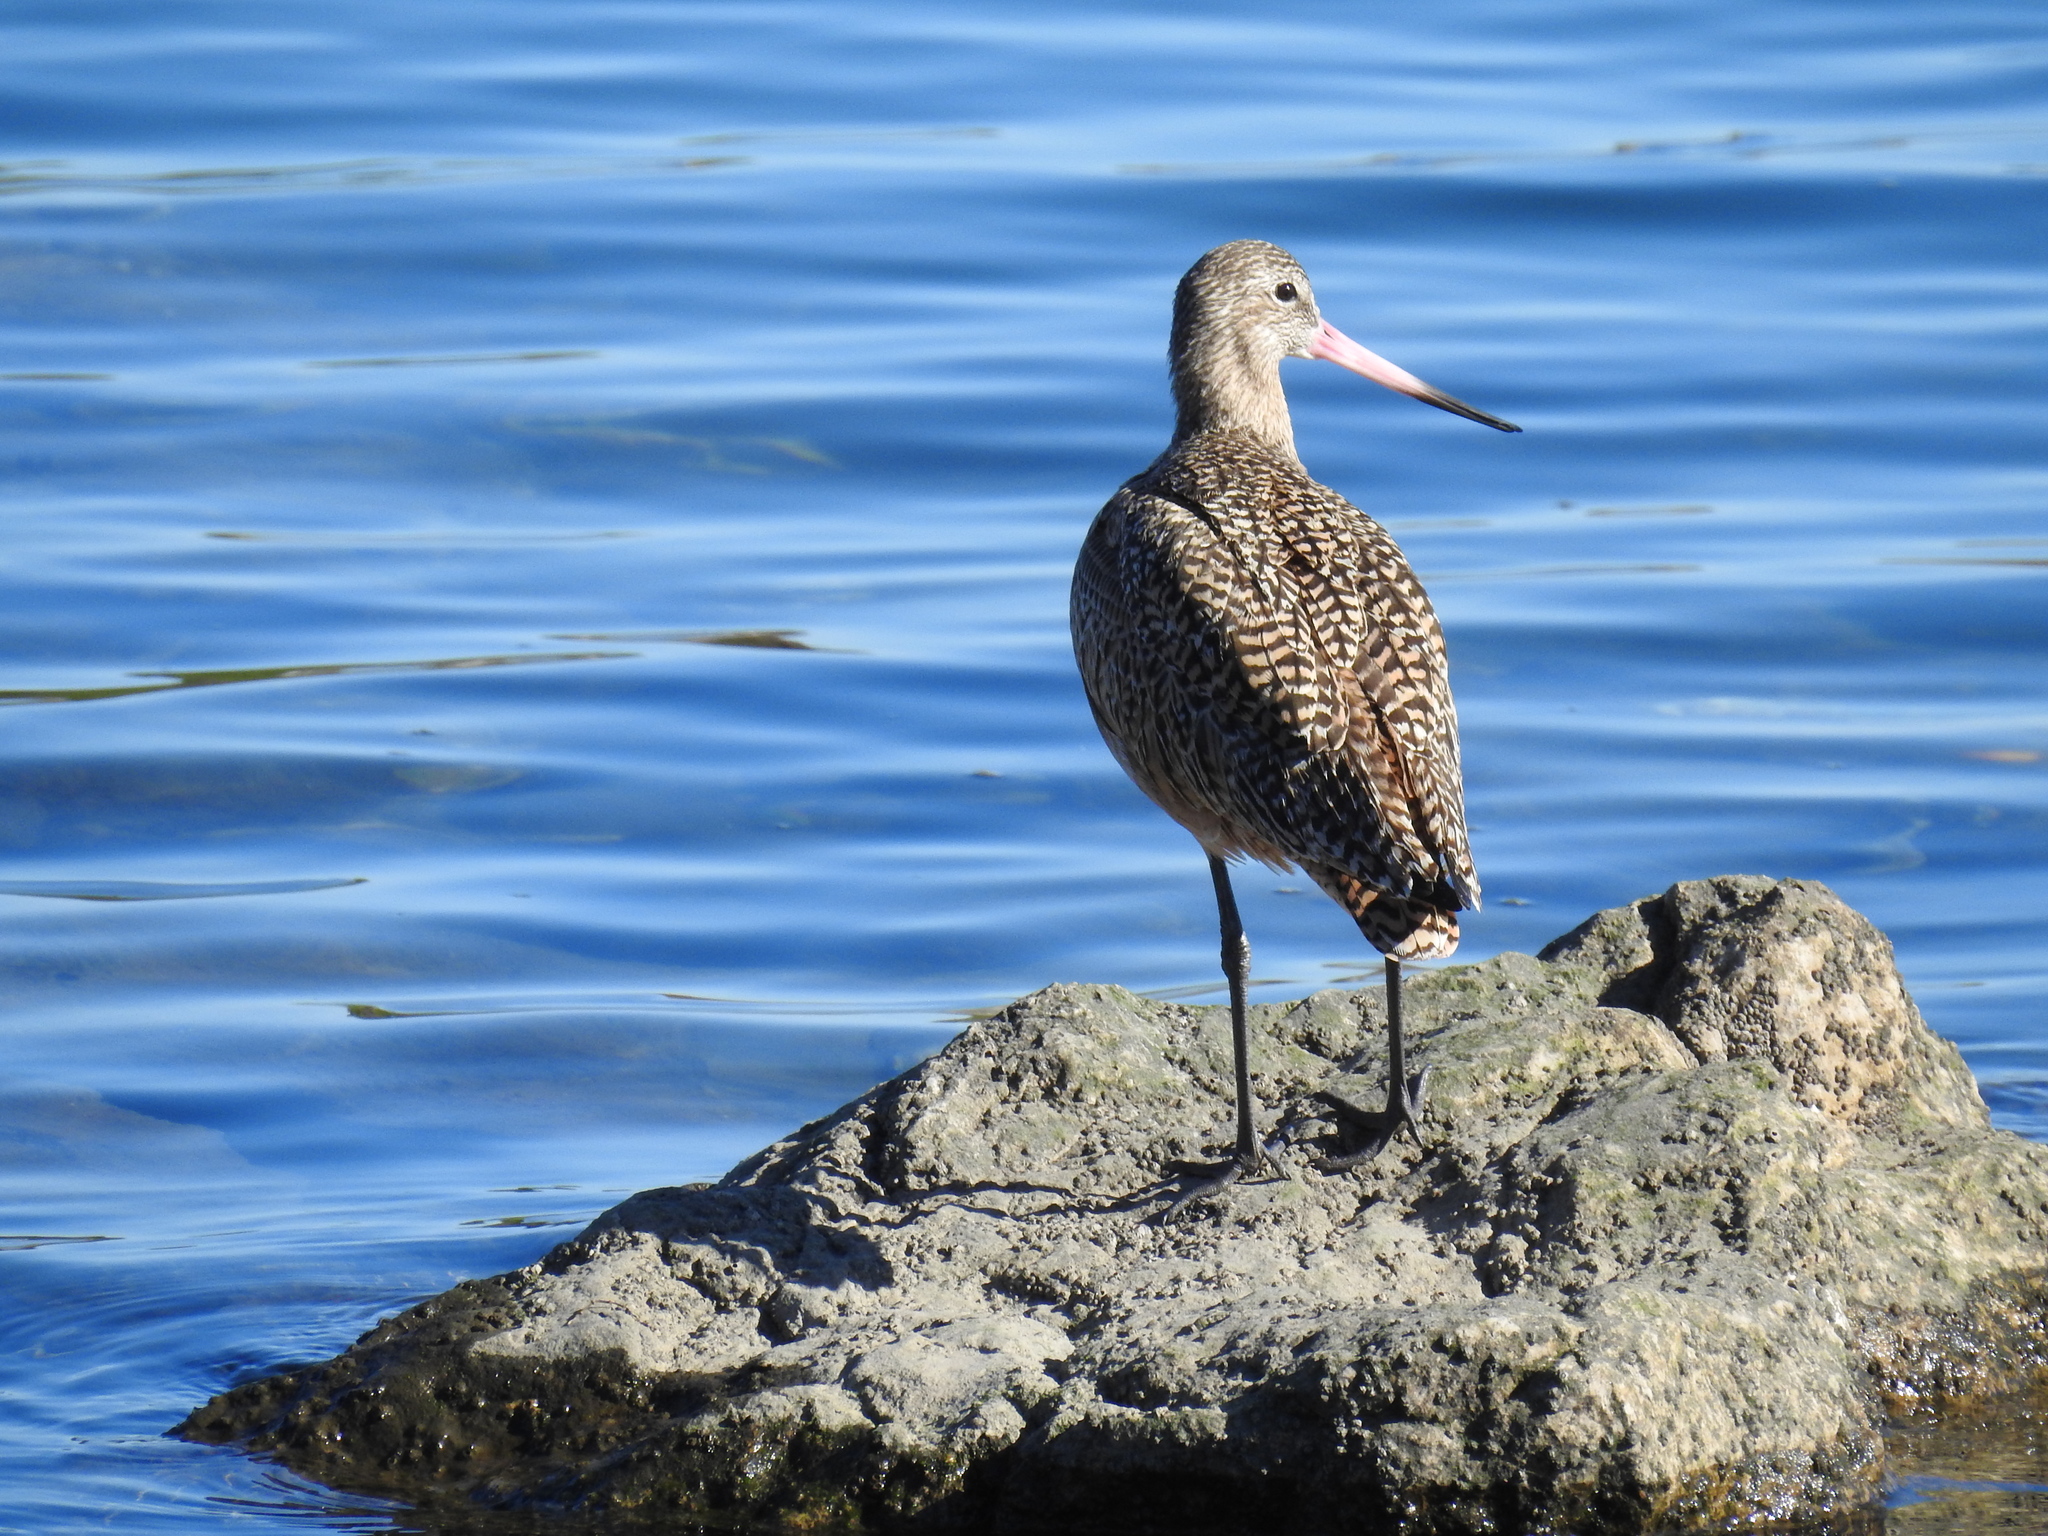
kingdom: Animalia
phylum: Chordata
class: Aves
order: Charadriiformes
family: Scolopacidae
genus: Limosa
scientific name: Limosa fedoa
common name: Marbled godwit
